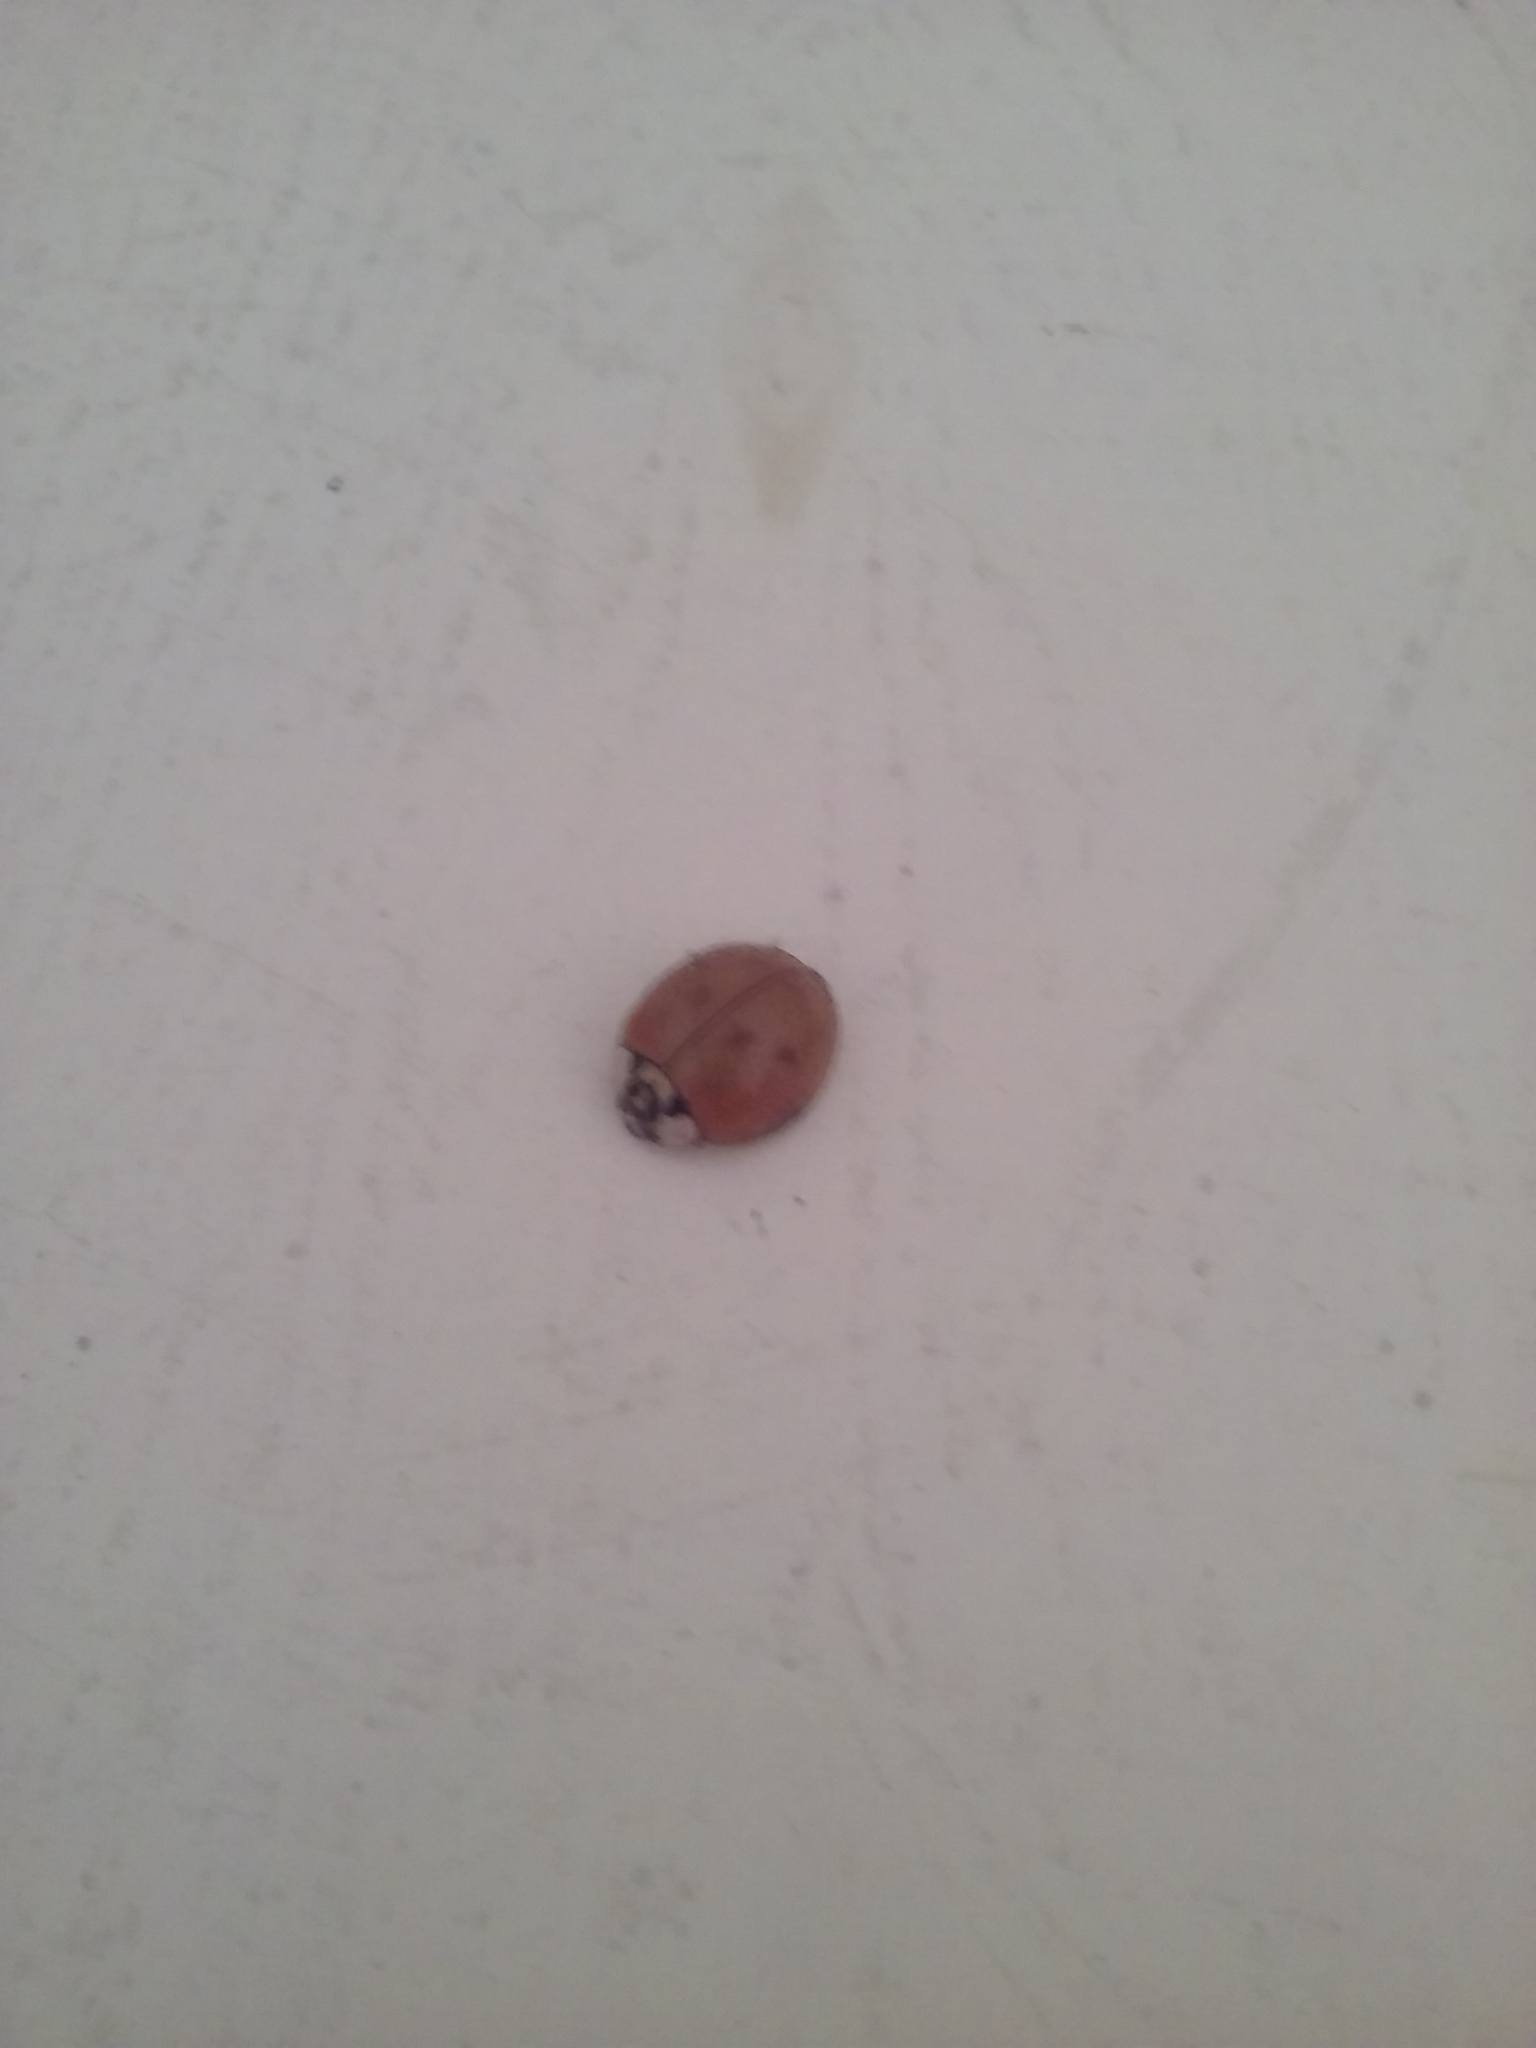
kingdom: Animalia
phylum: Arthropoda
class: Insecta
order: Coleoptera
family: Coccinellidae
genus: Harmonia
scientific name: Harmonia axyridis
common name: Harlequin ladybird
